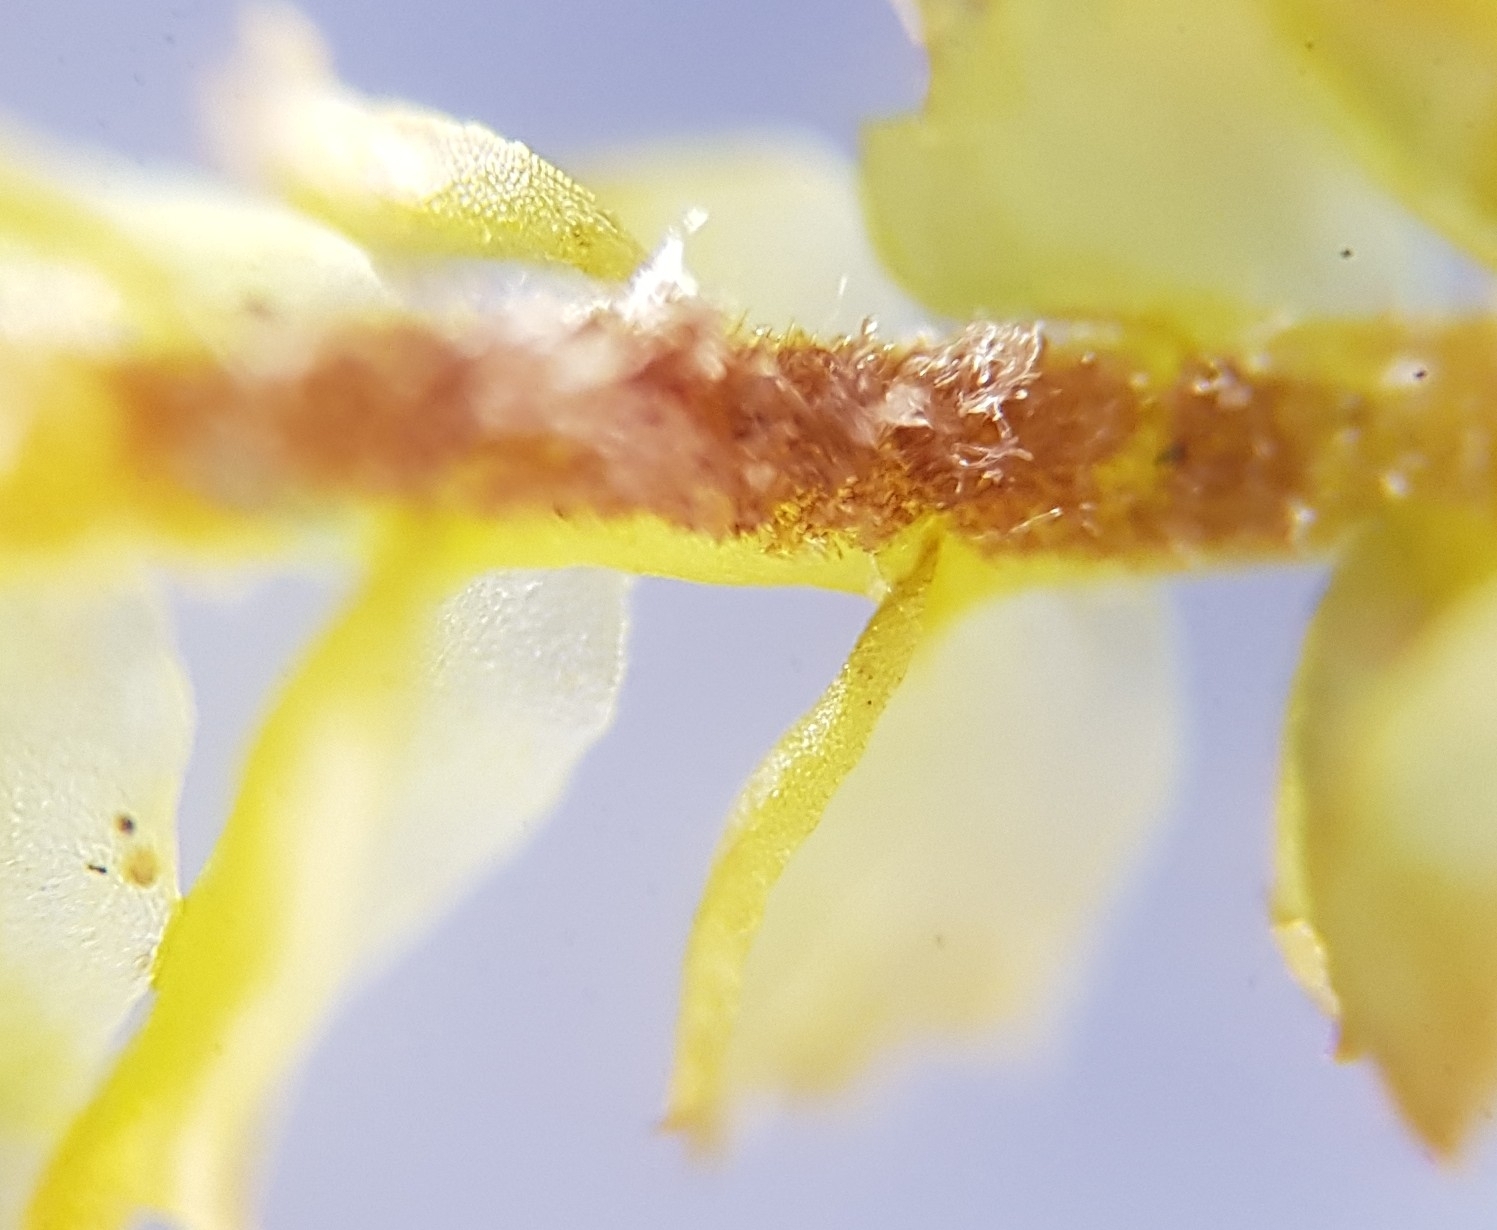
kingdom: Plantae
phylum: Marchantiophyta
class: Jungermanniopsida
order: Jungermanniales
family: Anastrophyllaceae
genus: Barbilophozia
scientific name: Barbilophozia barbata
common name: Bearded pawwort
